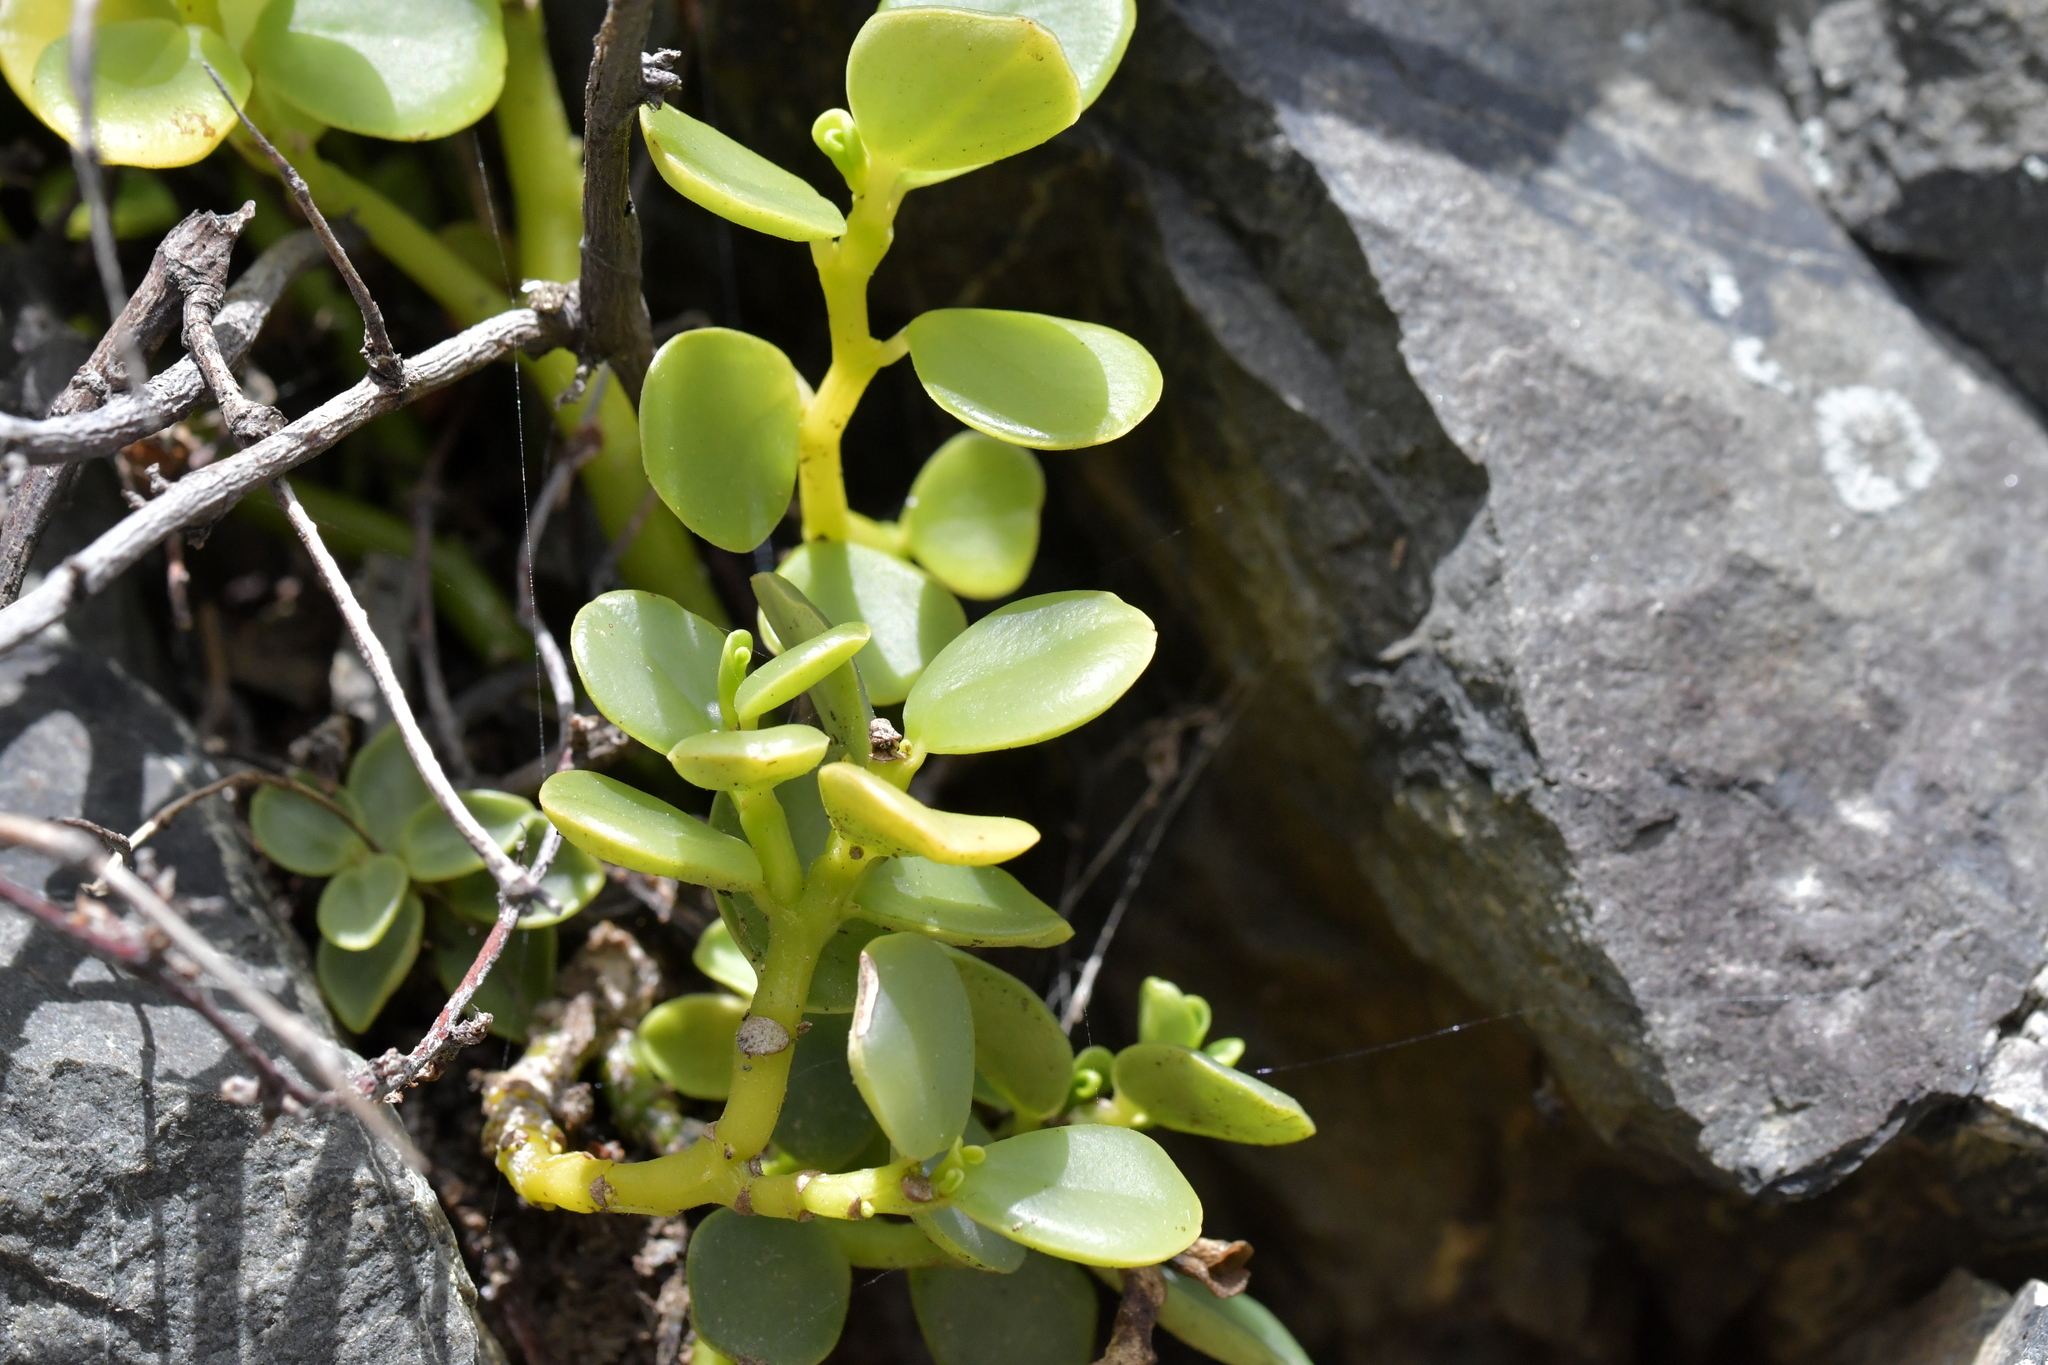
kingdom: Plantae
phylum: Tracheophyta
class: Magnoliopsida
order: Piperales
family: Piperaceae
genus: Peperomia
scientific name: Peperomia urvilleana
